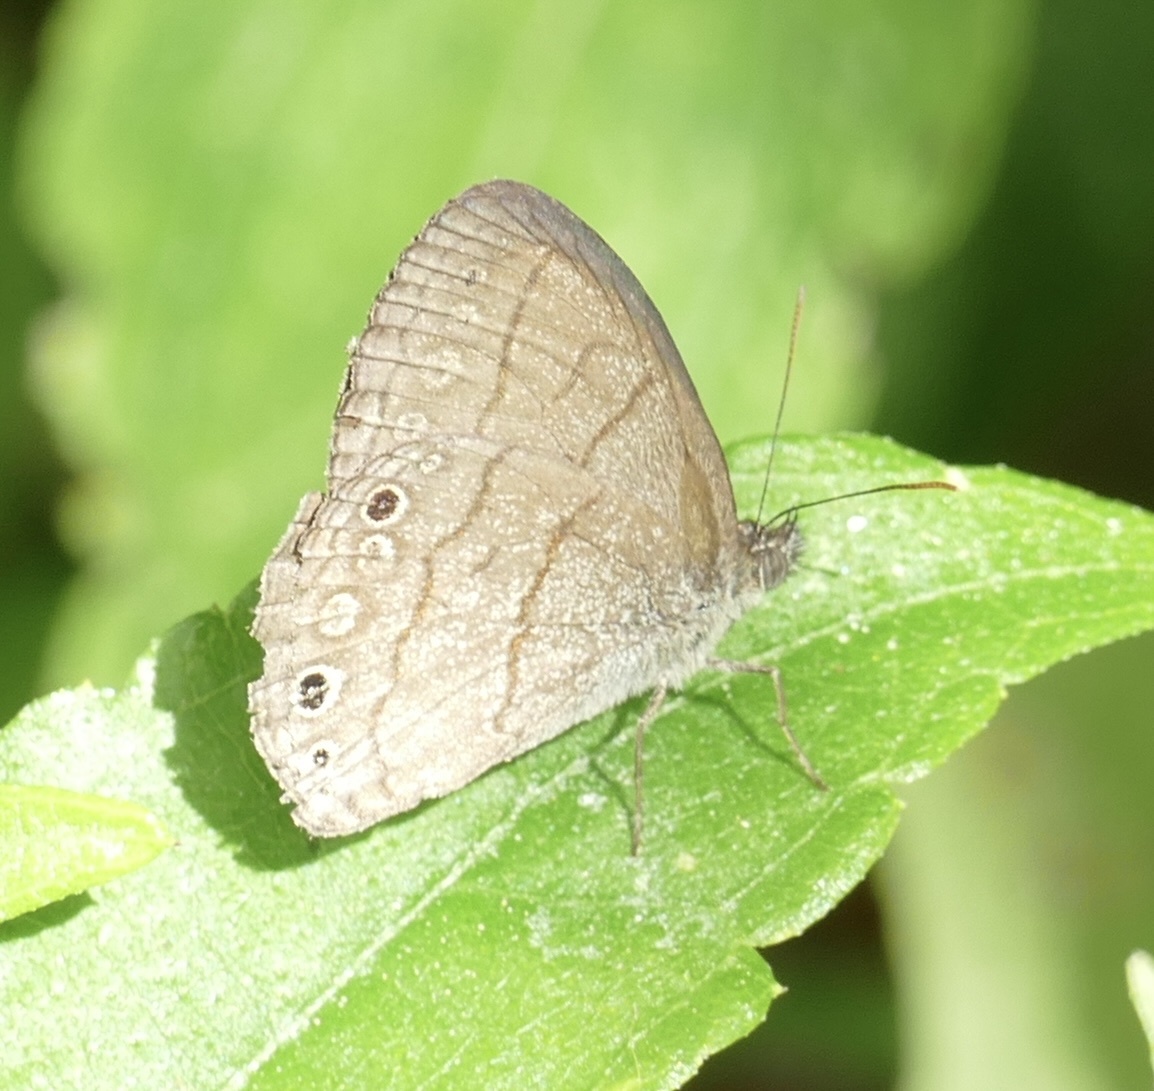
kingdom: Animalia
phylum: Arthropoda
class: Insecta
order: Lepidoptera
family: Nymphalidae
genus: Hermeuptychia
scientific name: Hermeuptychia hermes
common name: Hermes satyr
